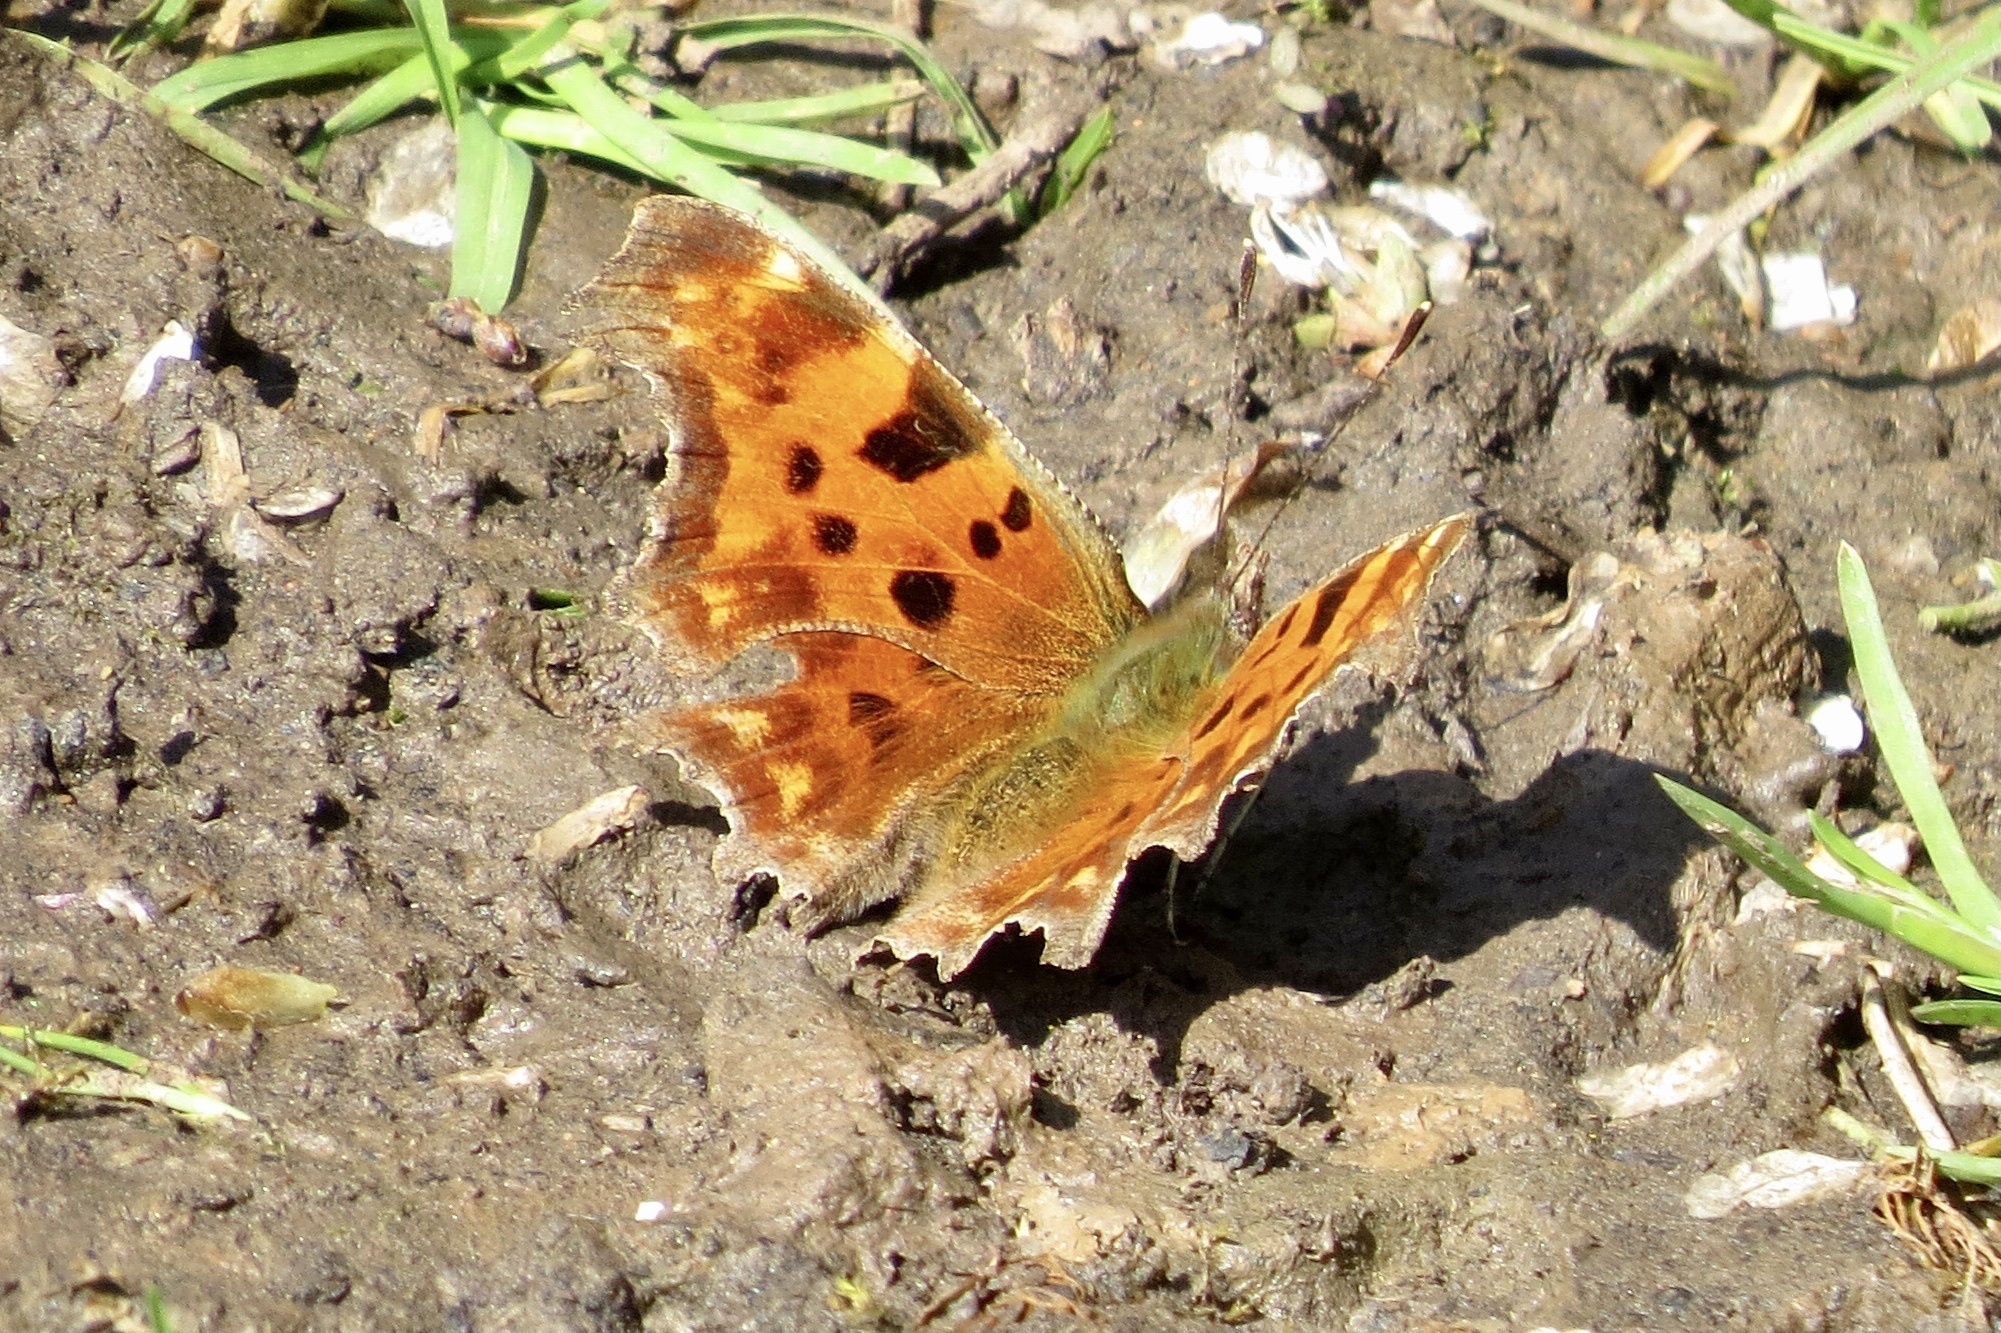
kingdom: Animalia
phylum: Arthropoda
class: Insecta
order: Lepidoptera
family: Nymphalidae
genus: Polygonia
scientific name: Polygonia c-album
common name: Comma
